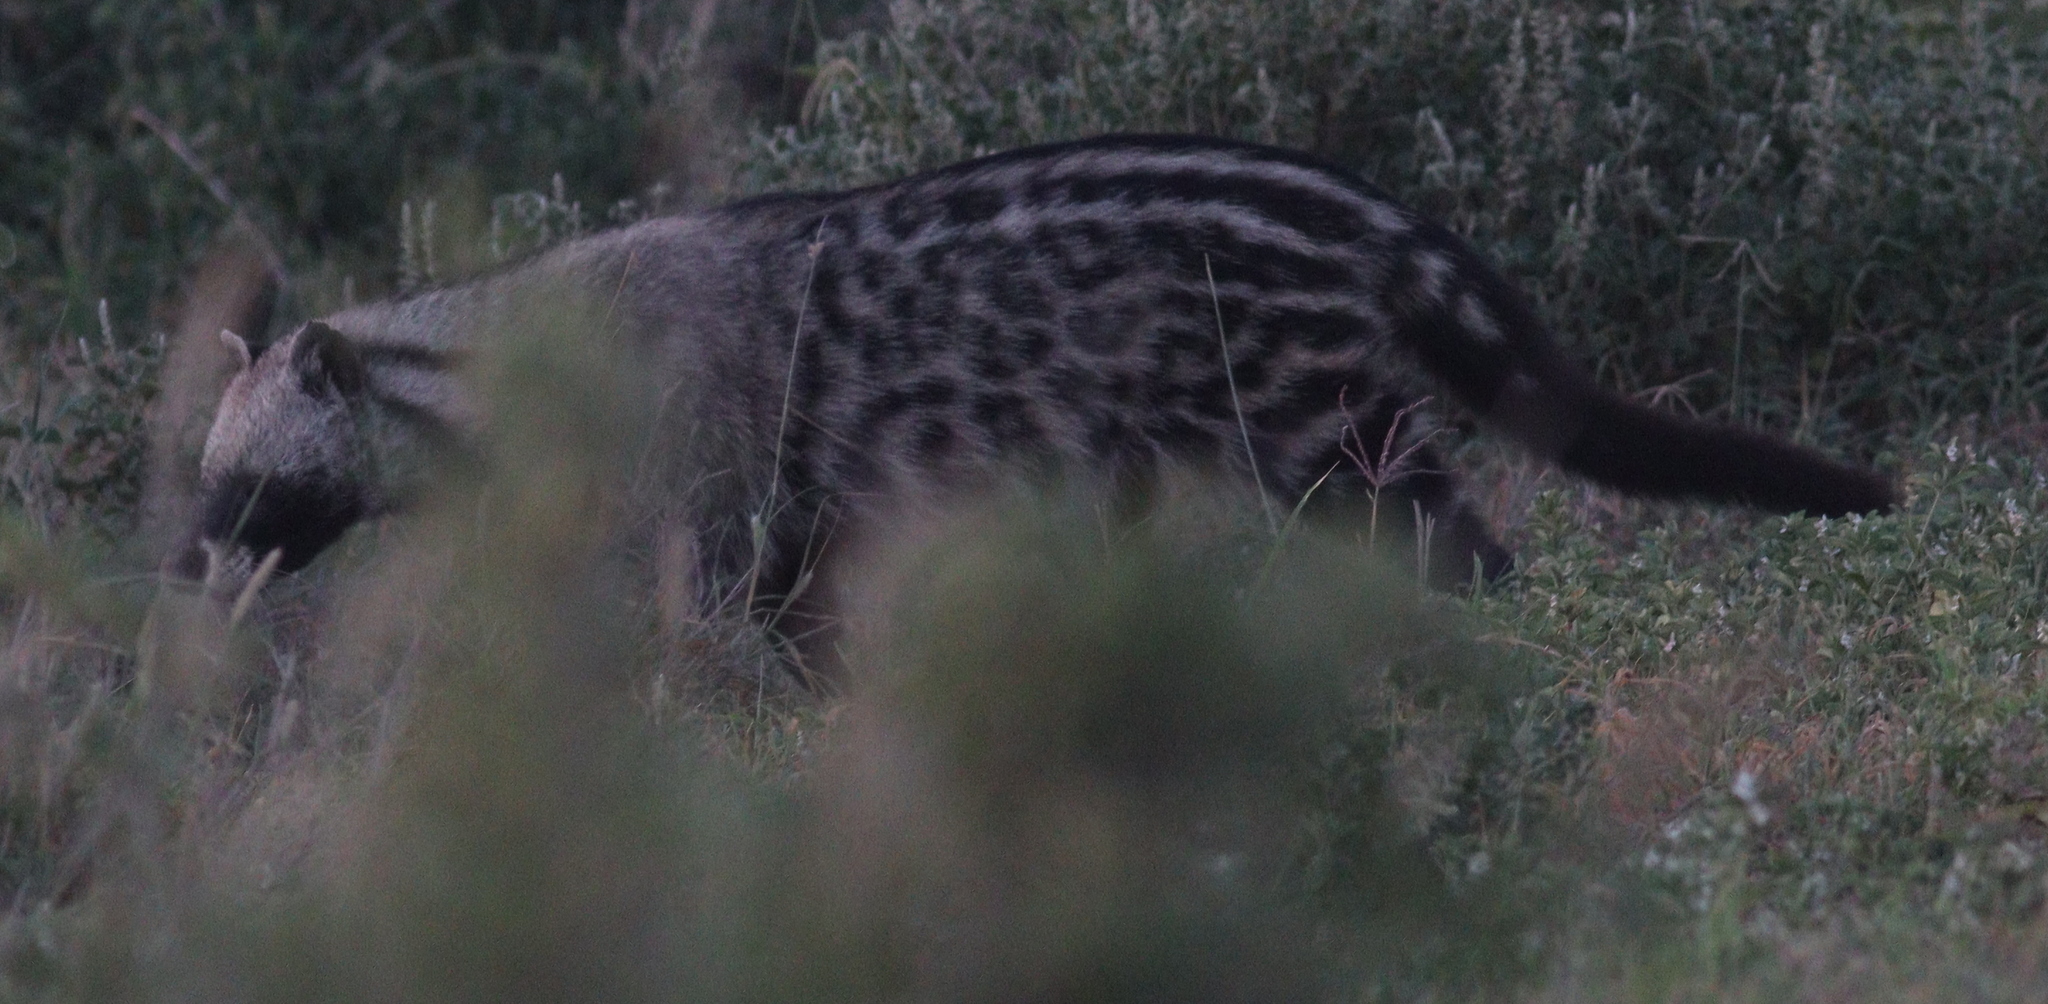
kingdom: Animalia
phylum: Chordata
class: Mammalia
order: Carnivora
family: Viverridae
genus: Civettictis
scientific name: Civettictis civetta
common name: African civet
